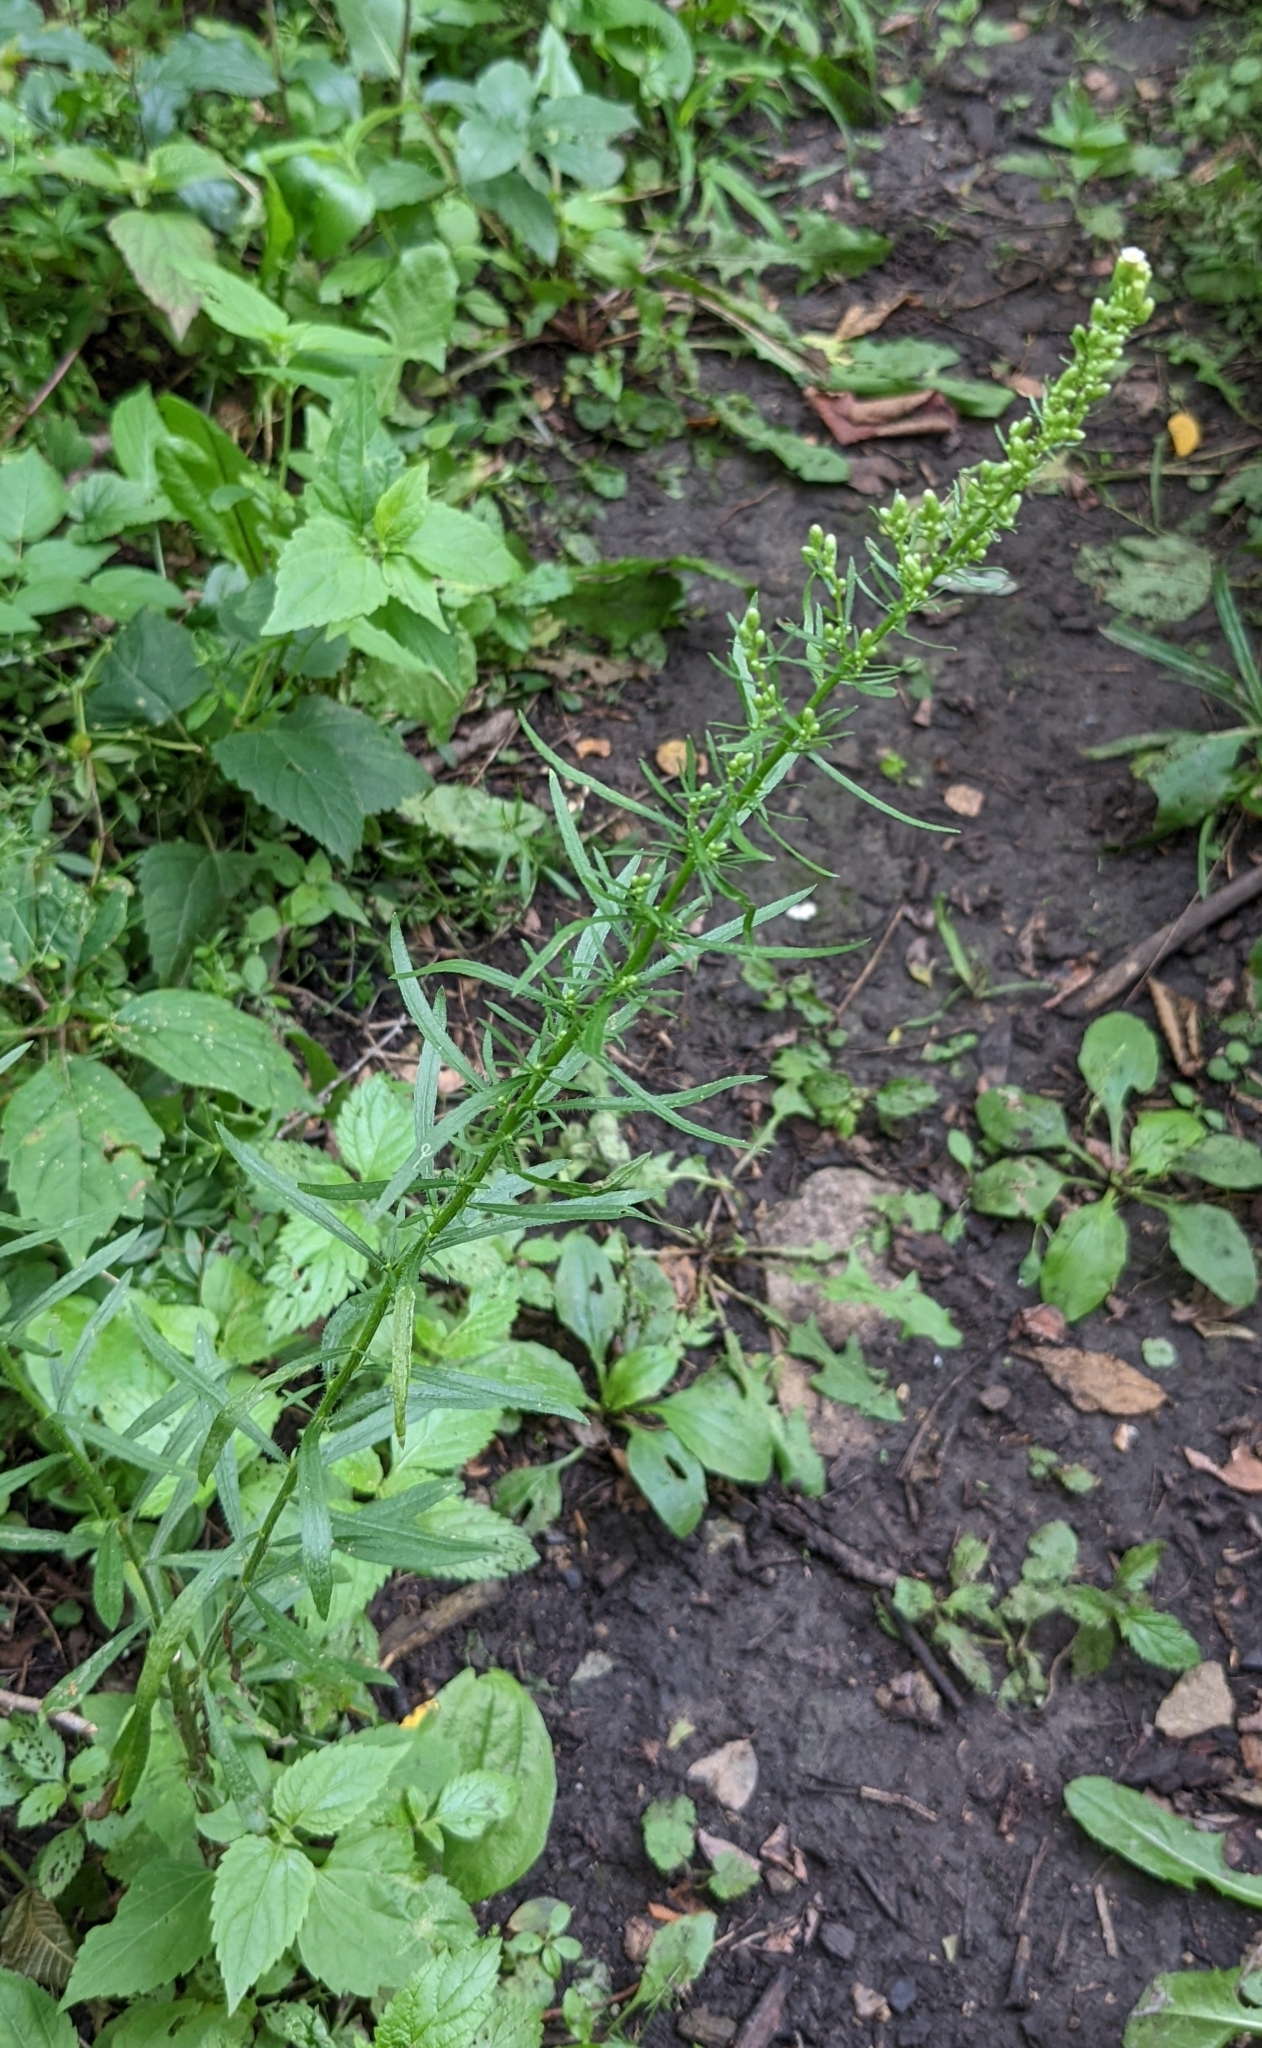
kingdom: Plantae
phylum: Tracheophyta
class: Magnoliopsida
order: Asterales
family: Asteraceae
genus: Erigeron
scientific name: Erigeron canadensis
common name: Canadian fleabane
